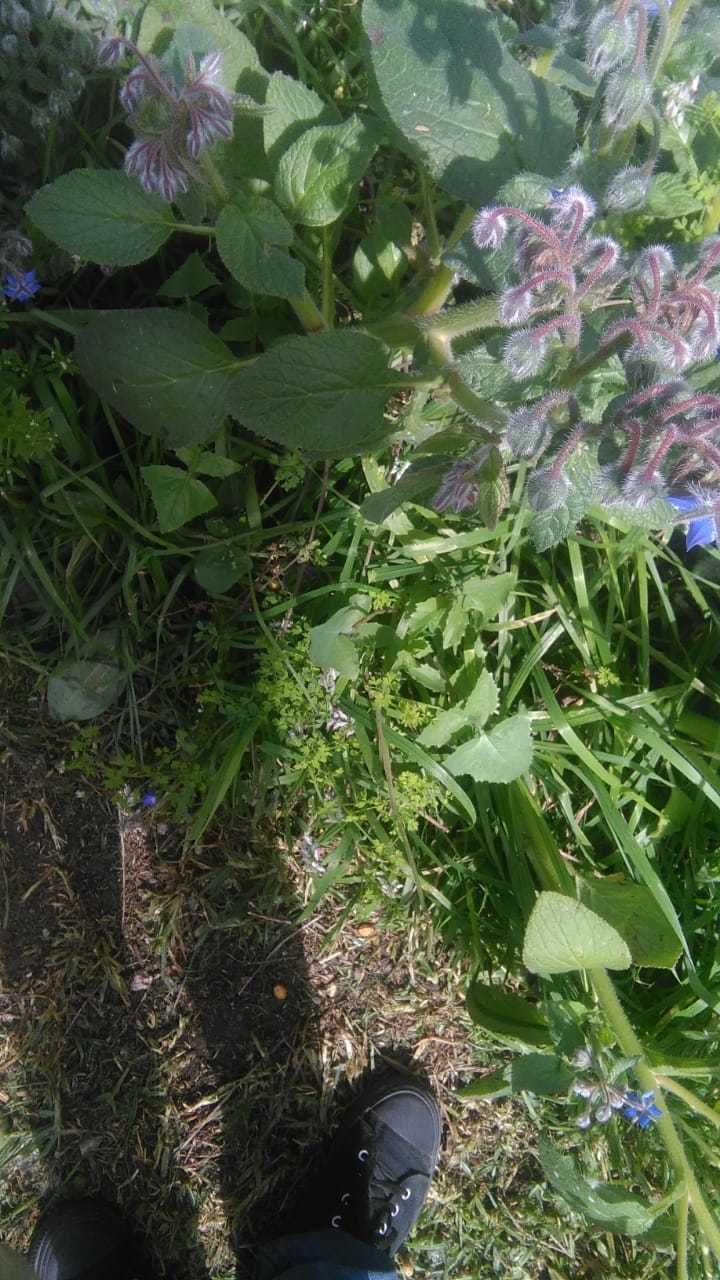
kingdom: Plantae
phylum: Tracheophyta
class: Magnoliopsida
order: Boraginales
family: Boraginaceae
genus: Borago
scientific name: Borago officinalis
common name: Borage
